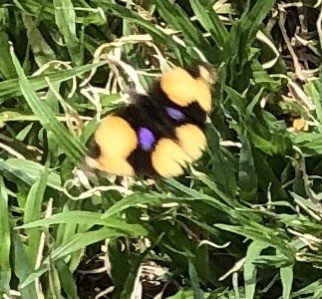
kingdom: Animalia
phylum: Arthropoda
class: Insecta
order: Lepidoptera
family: Nymphalidae
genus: Junonia
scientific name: Junonia hierta
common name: Yellow pansy
